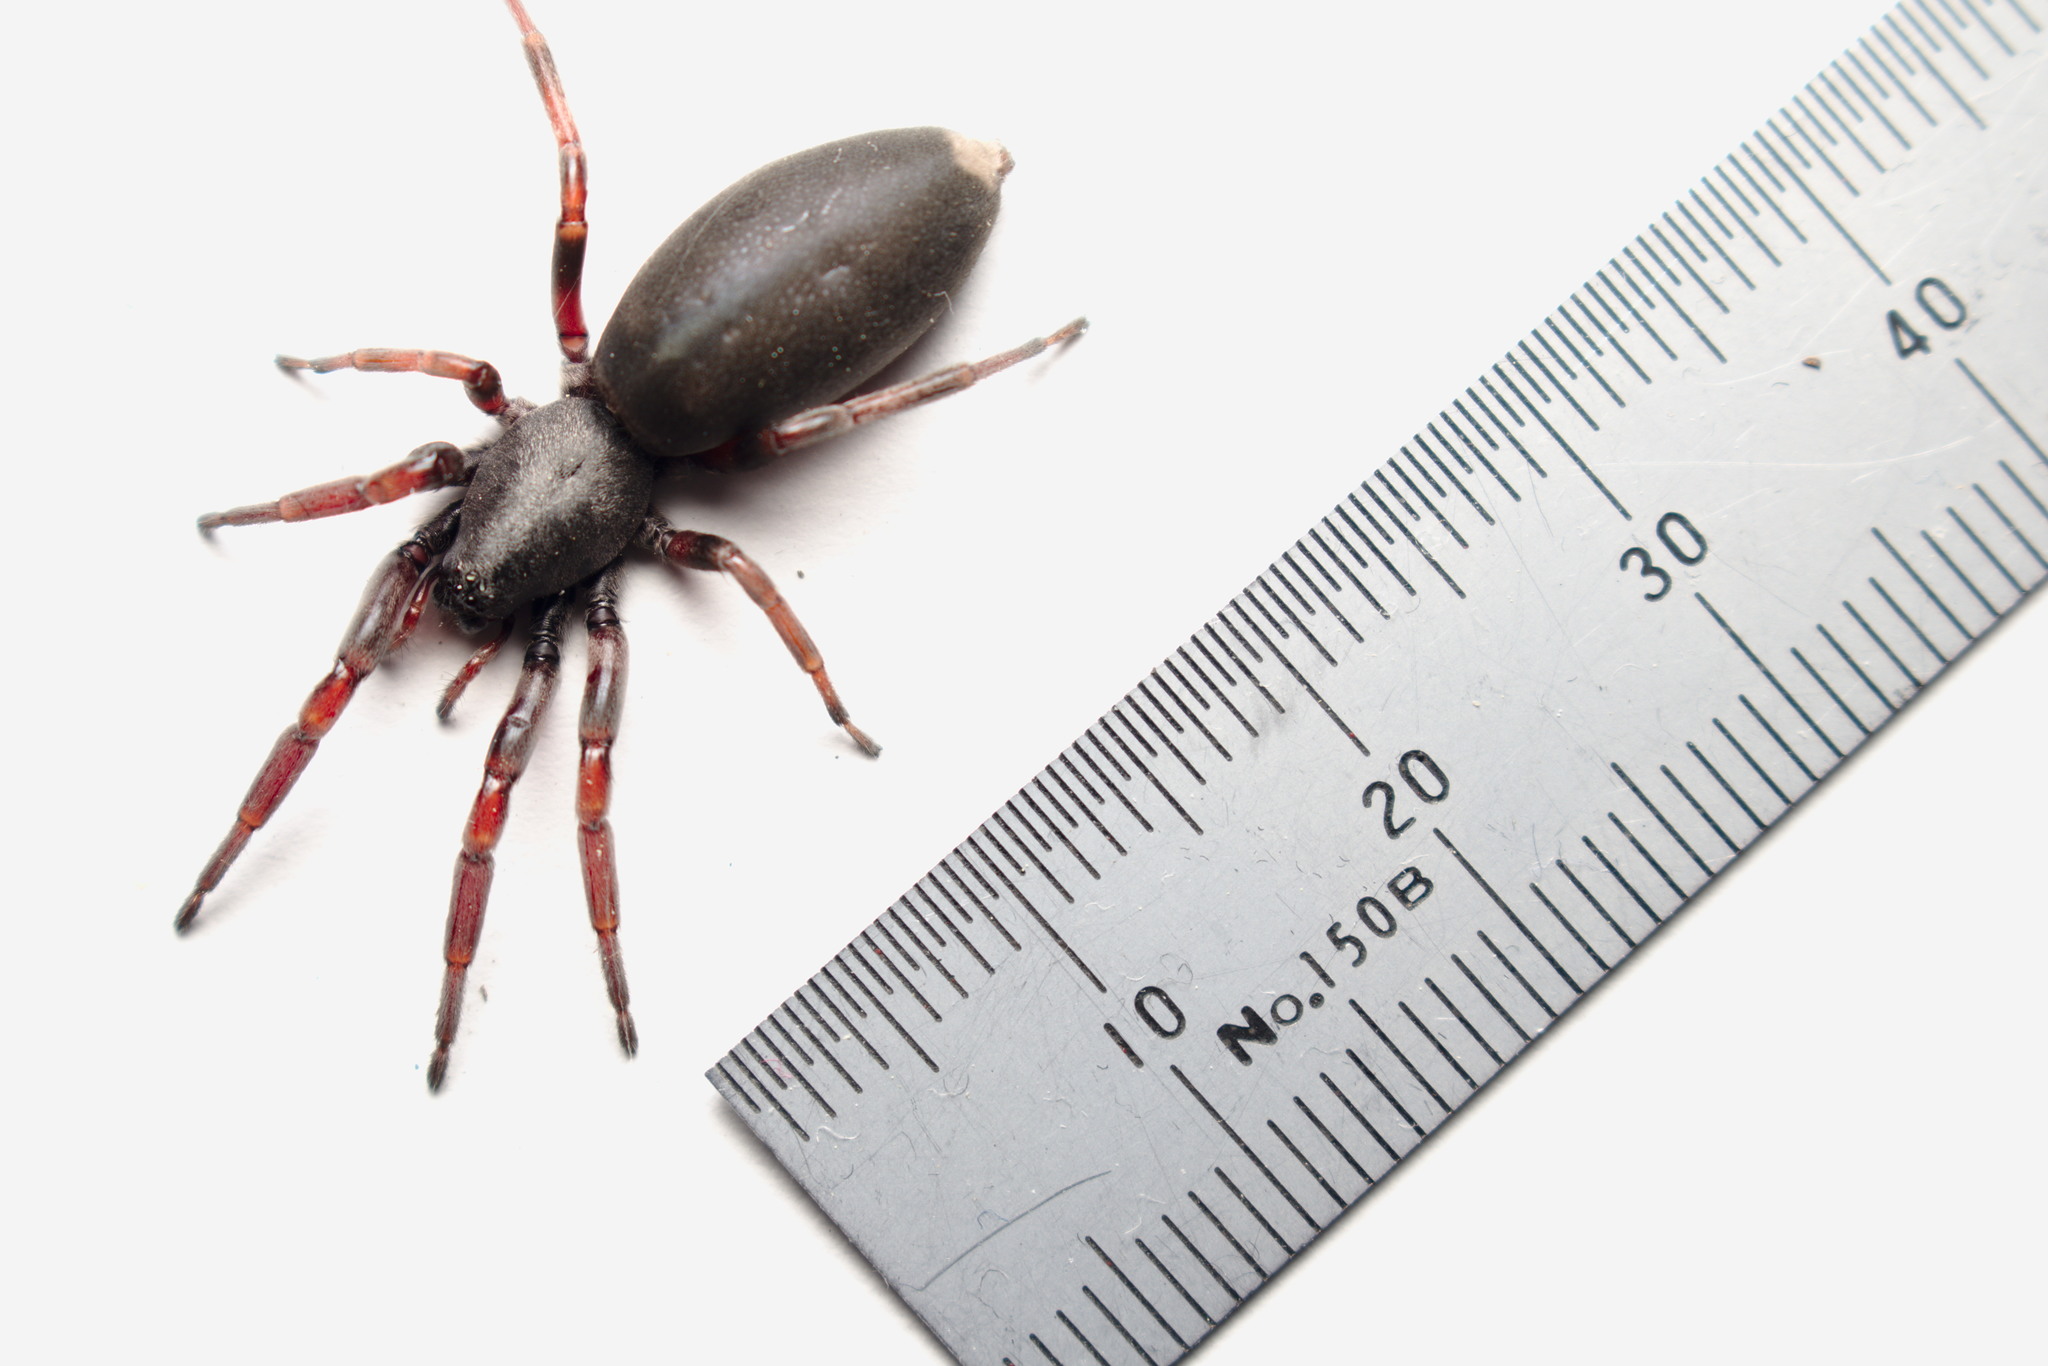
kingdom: Animalia
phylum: Arthropoda
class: Arachnida
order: Araneae
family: Lamponidae
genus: Lampona
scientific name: Lampona murina
